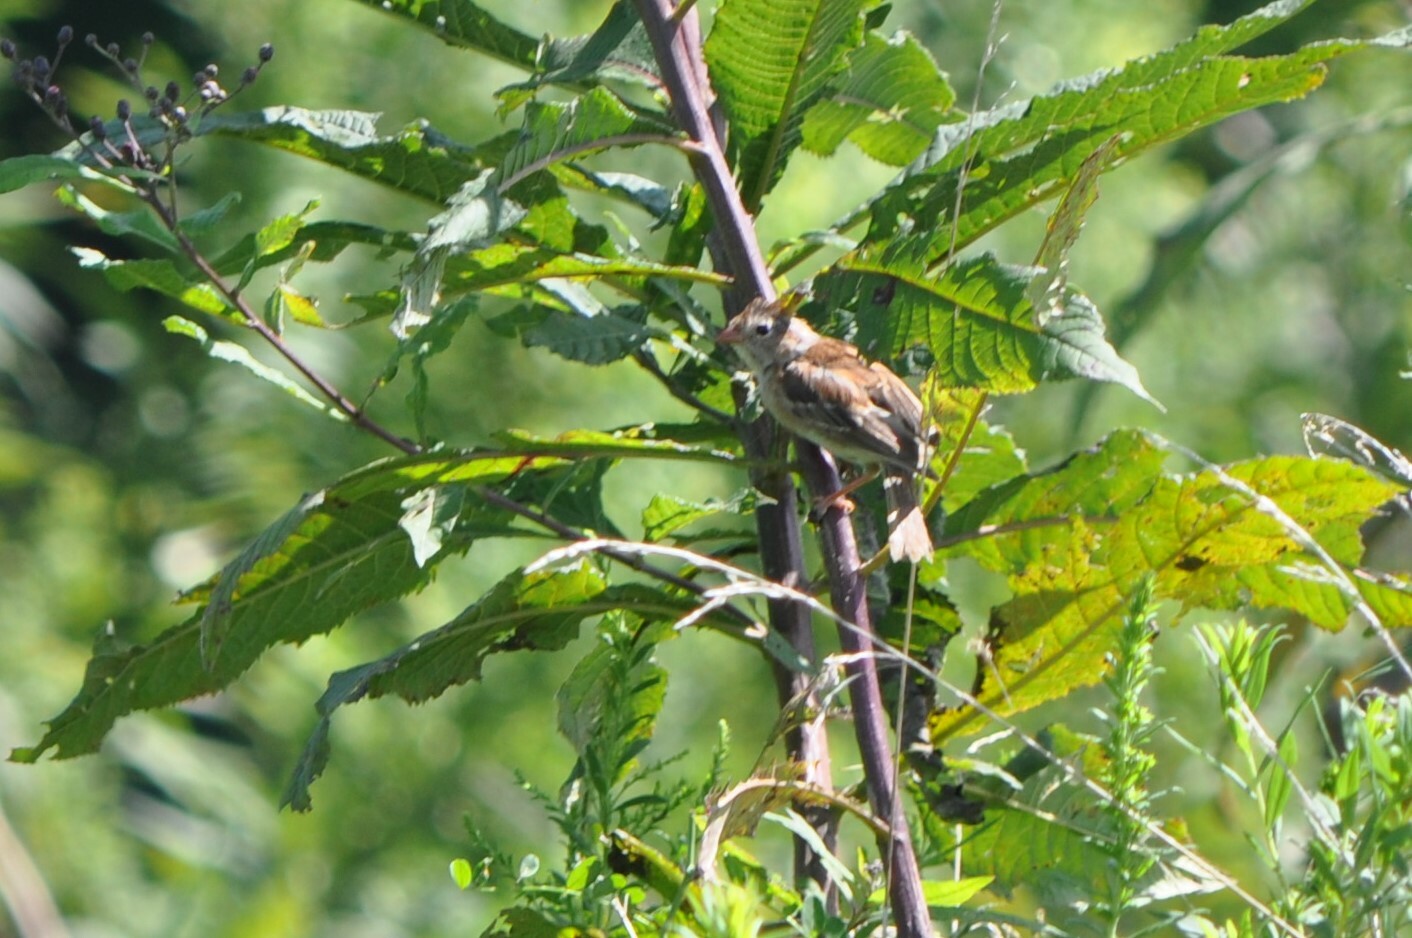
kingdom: Animalia
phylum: Chordata
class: Aves
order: Passeriformes
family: Passerellidae
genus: Spizella
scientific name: Spizella pusilla
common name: Field sparrow
